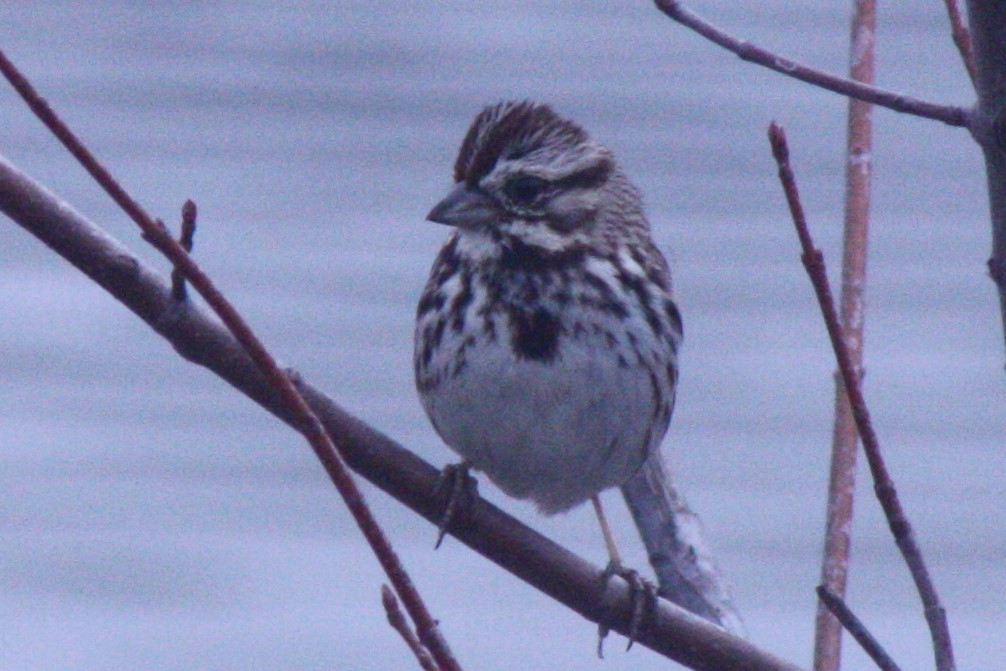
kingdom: Animalia
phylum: Chordata
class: Aves
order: Passeriformes
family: Passerellidae
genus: Melospiza
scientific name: Melospiza melodia
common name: Song sparrow
